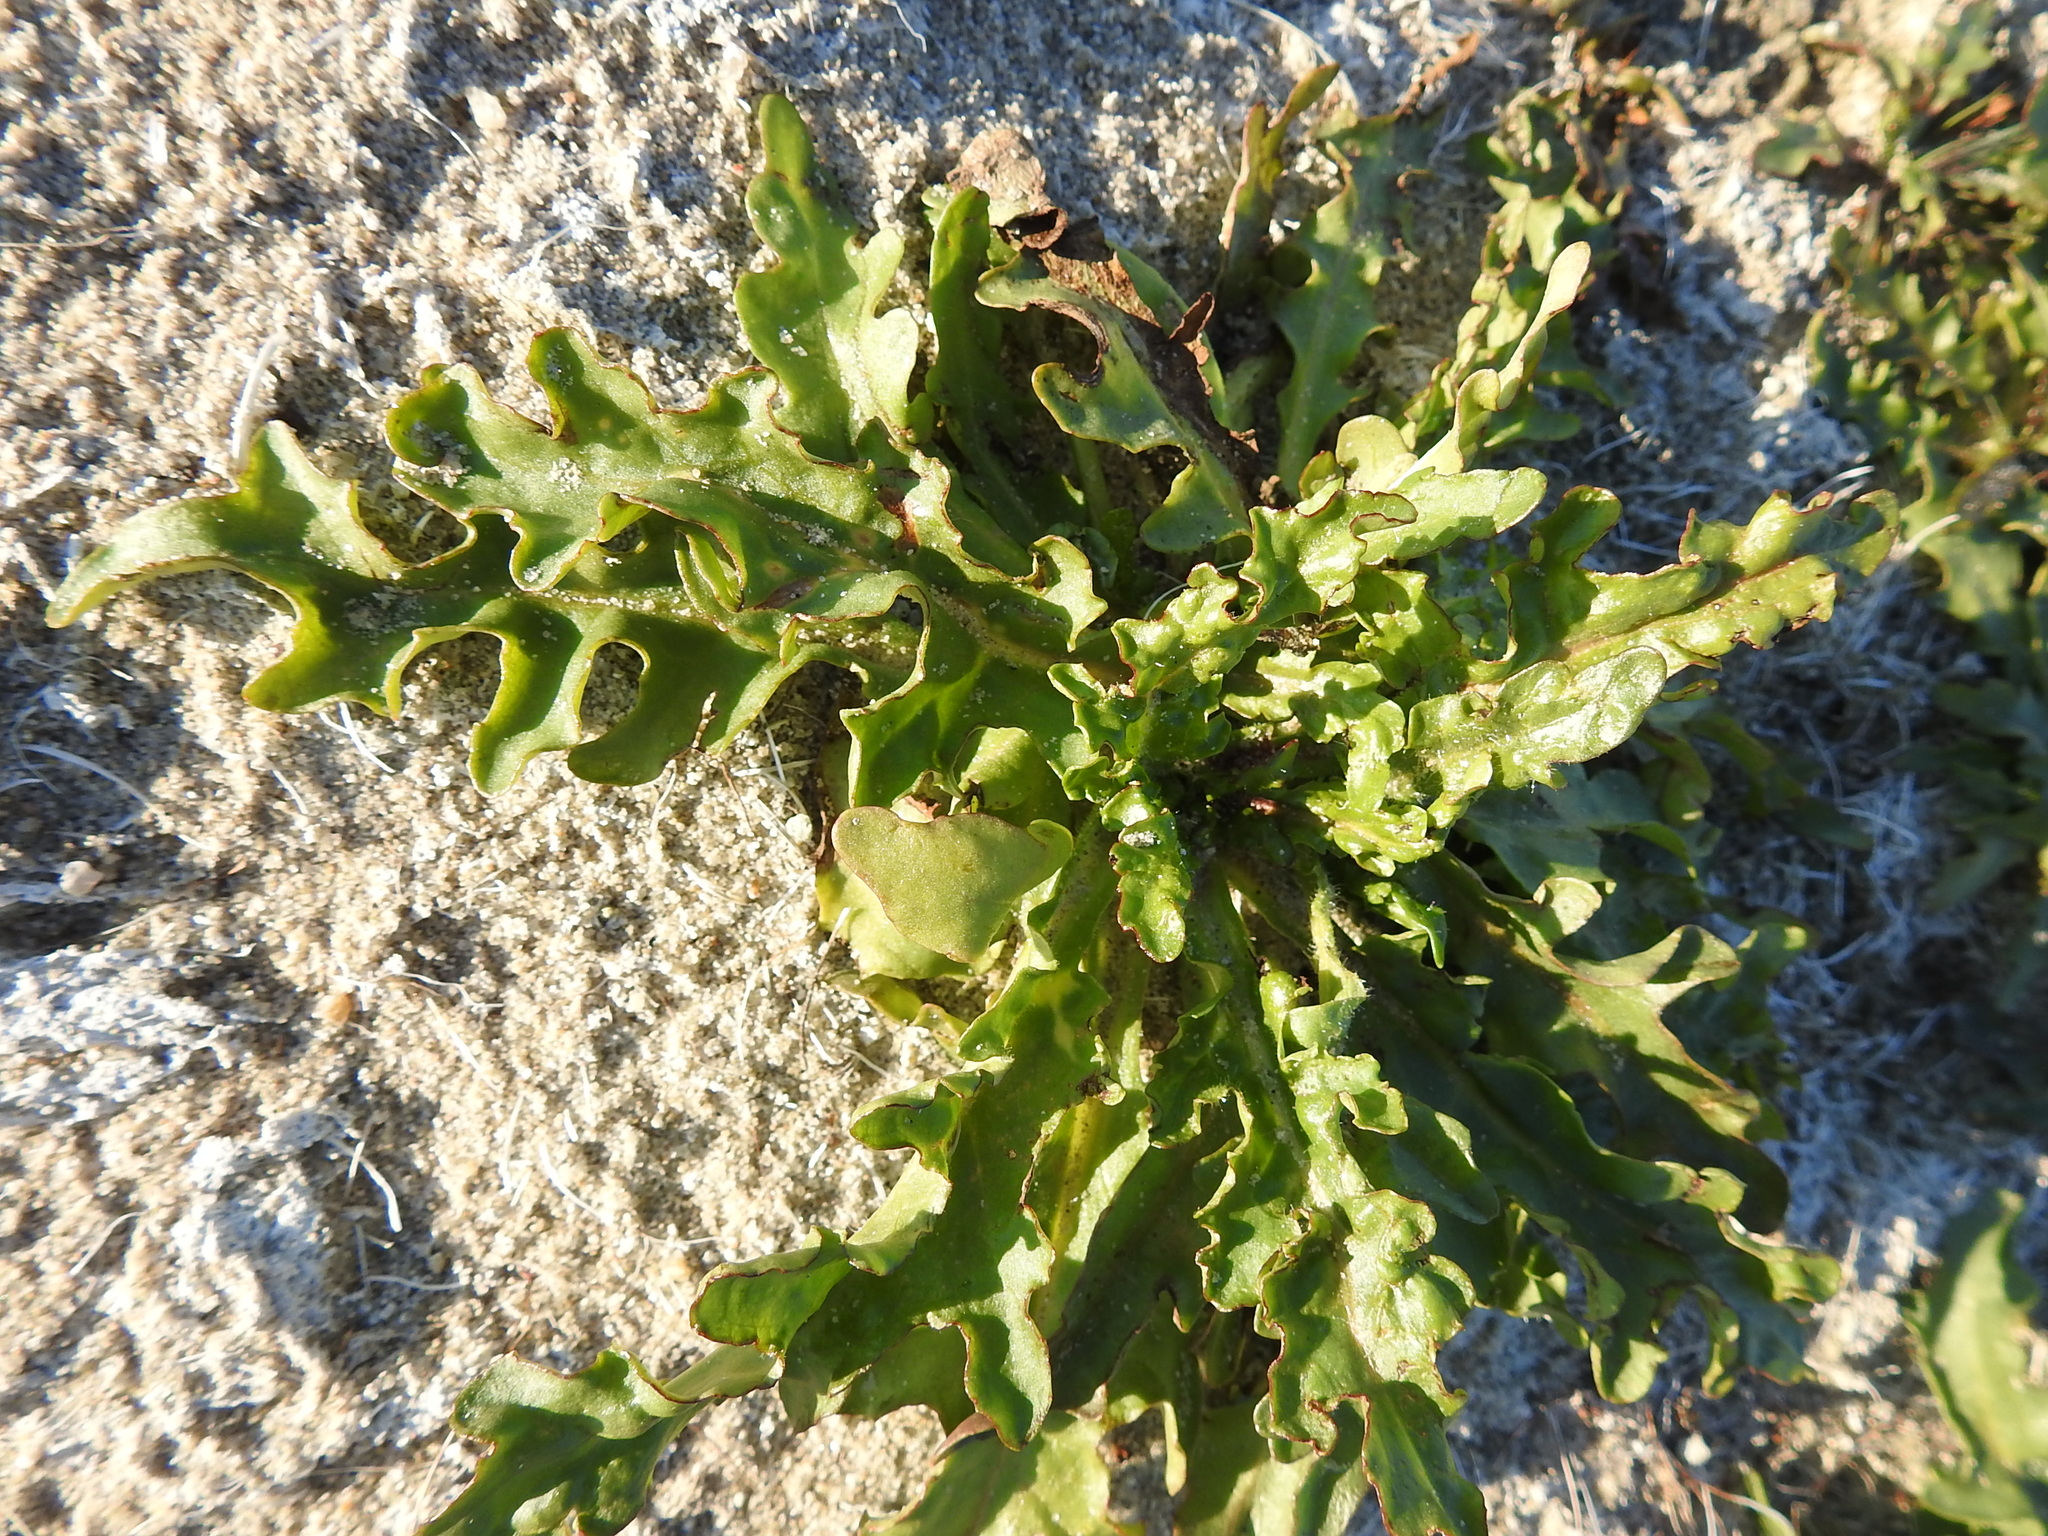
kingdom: Plantae
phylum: Tracheophyta
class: Magnoliopsida
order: Asterales
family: Asteraceae
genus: Tephroseris
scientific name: Tephroseris palustris
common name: Marsh fleawort
